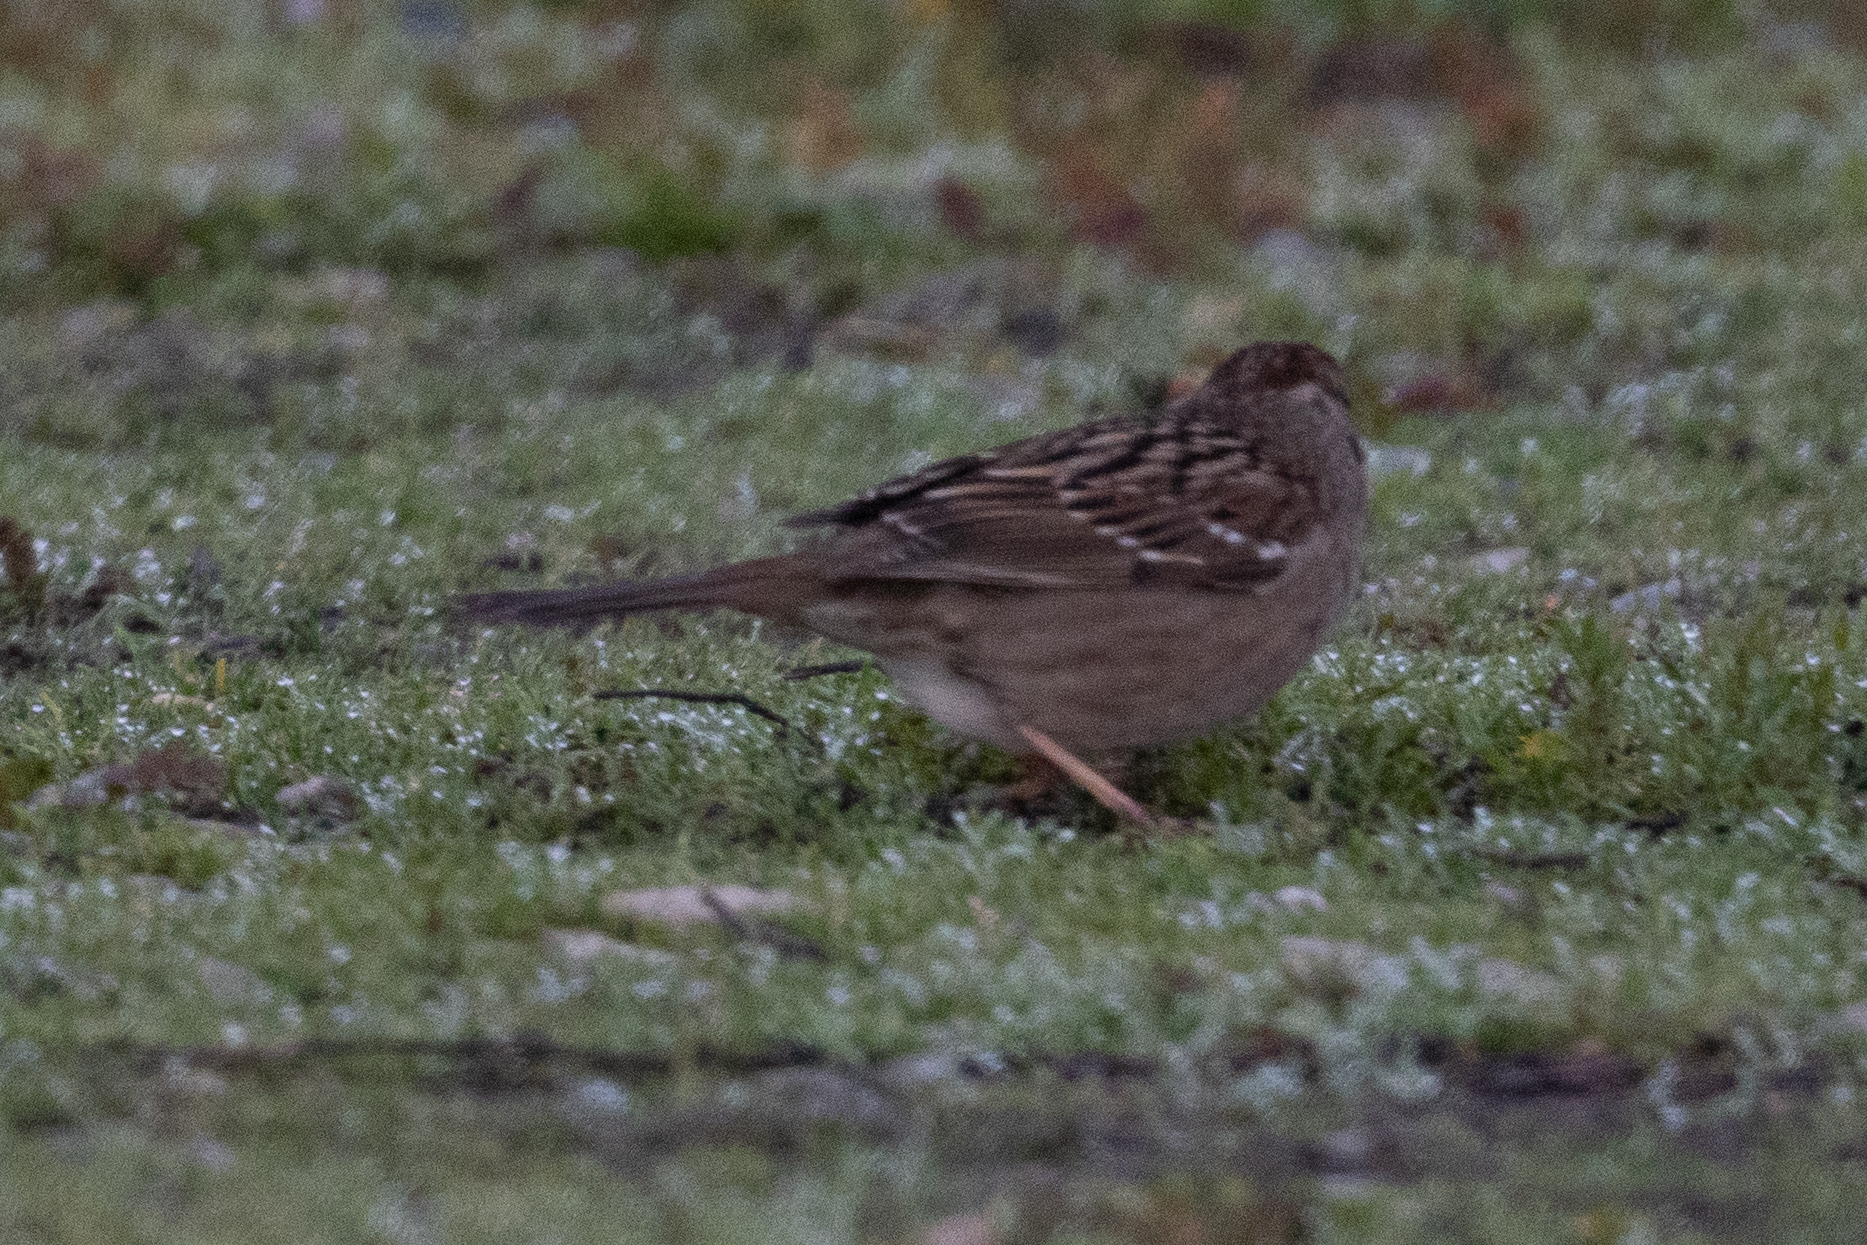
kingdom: Animalia
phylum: Chordata
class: Aves
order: Passeriformes
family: Passerellidae
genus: Zonotrichia
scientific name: Zonotrichia atricapilla
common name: Golden-crowned sparrow
